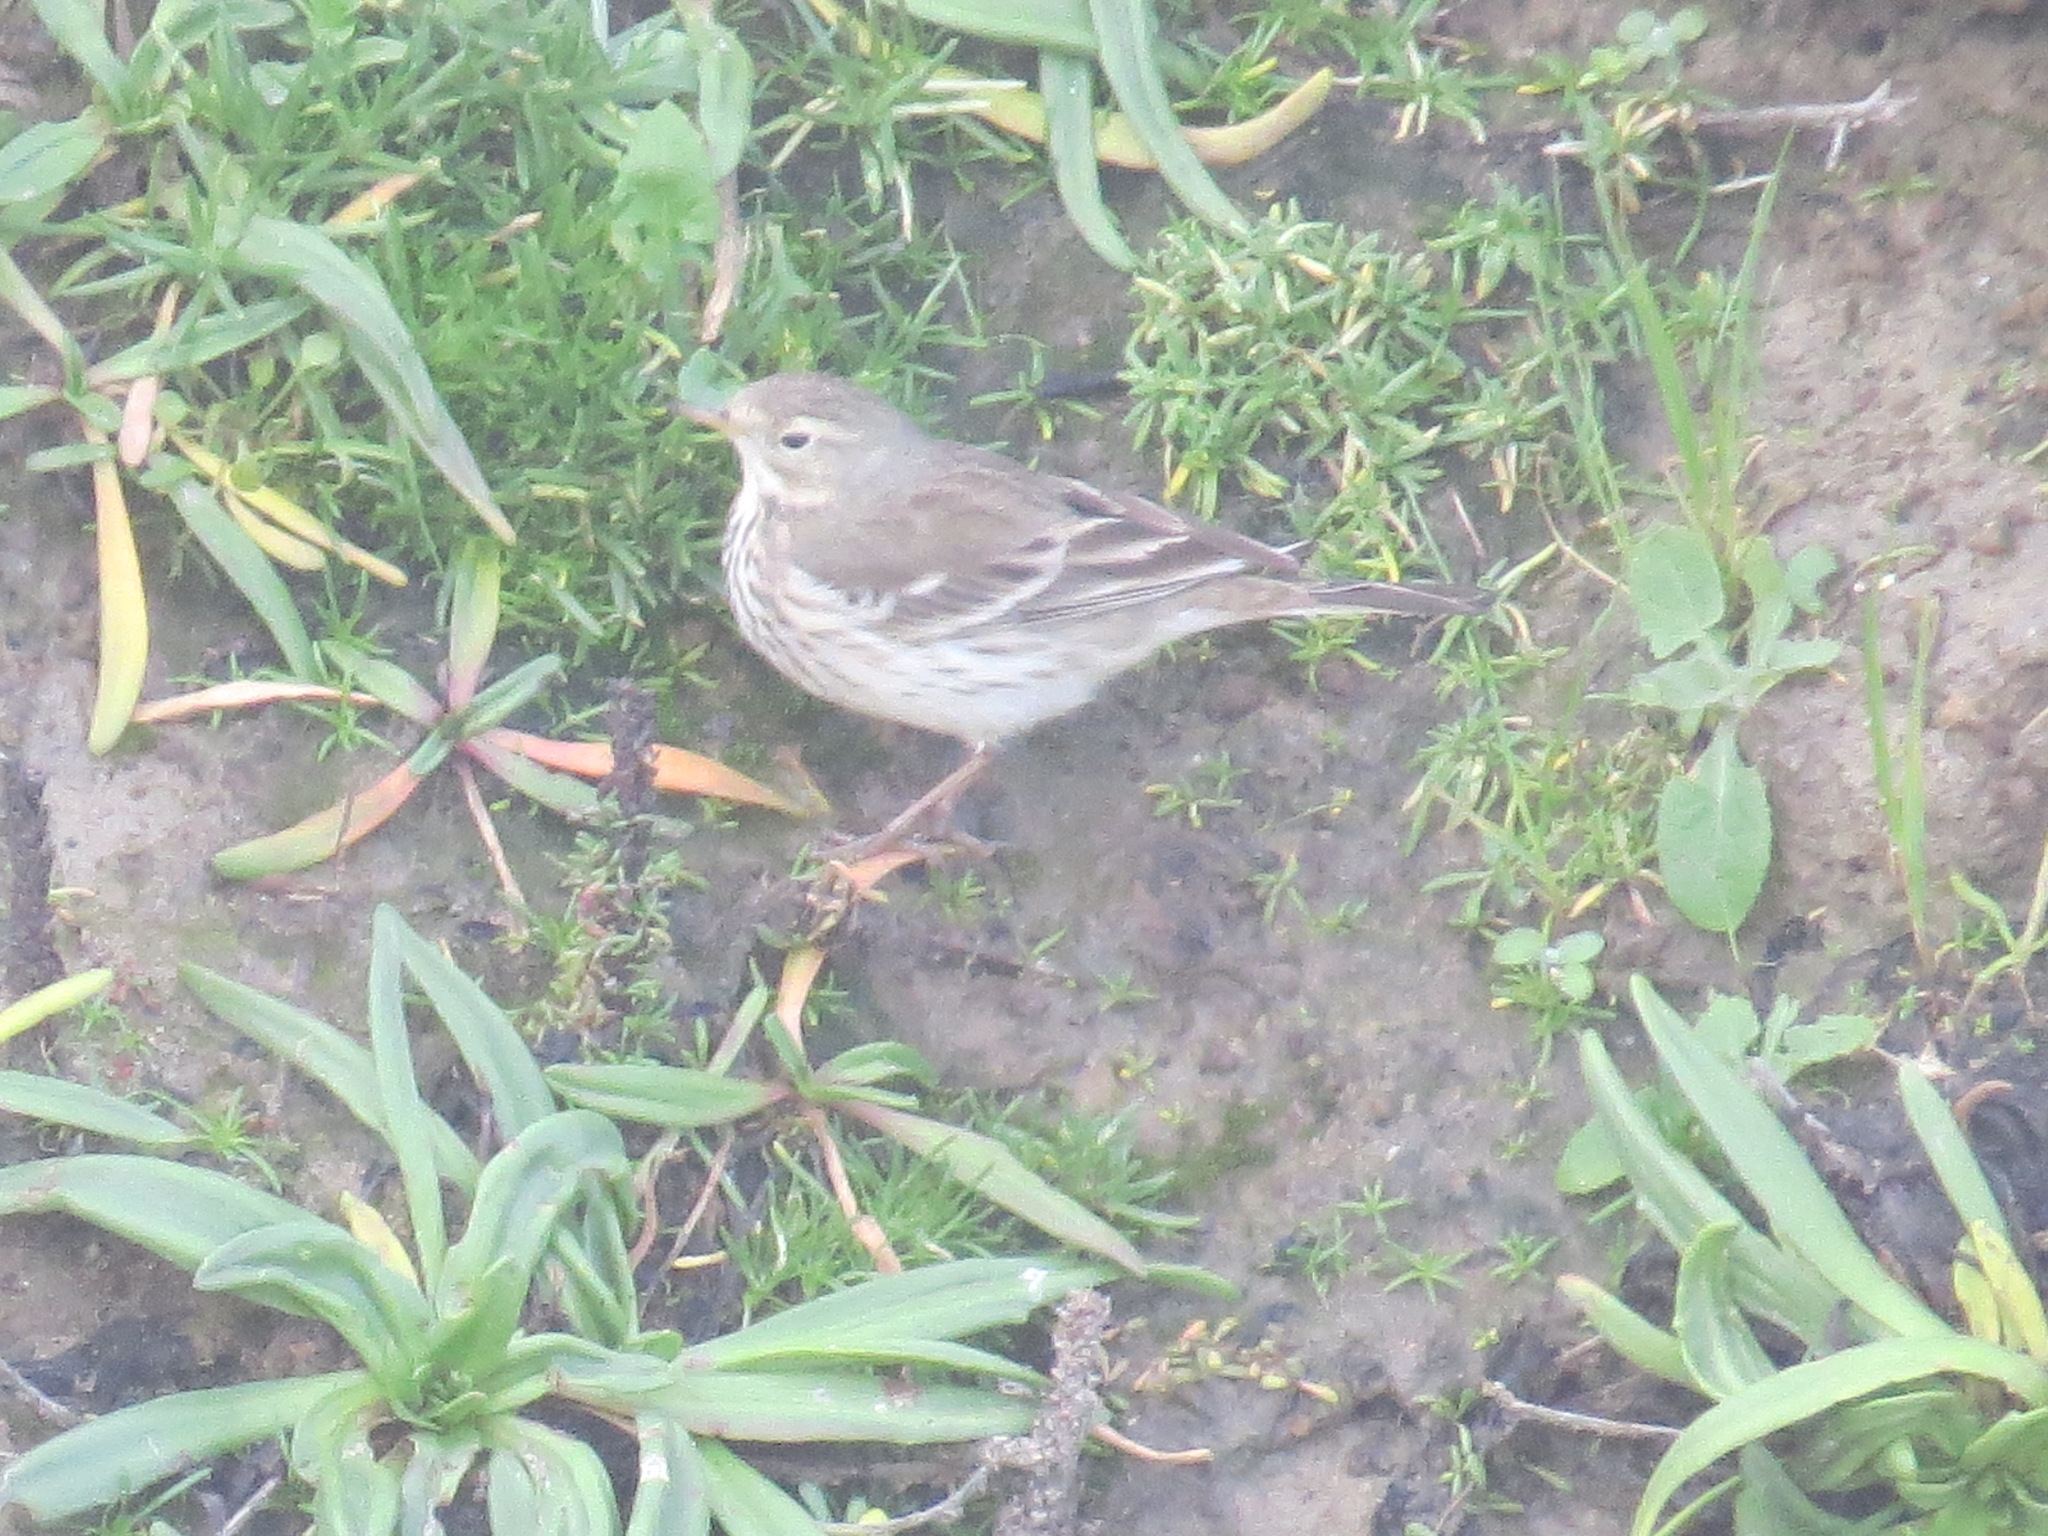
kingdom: Animalia
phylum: Chordata
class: Aves
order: Passeriformes
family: Motacillidae
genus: Anthus
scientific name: Anthus rubescens
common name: Buff-bellied pipit
